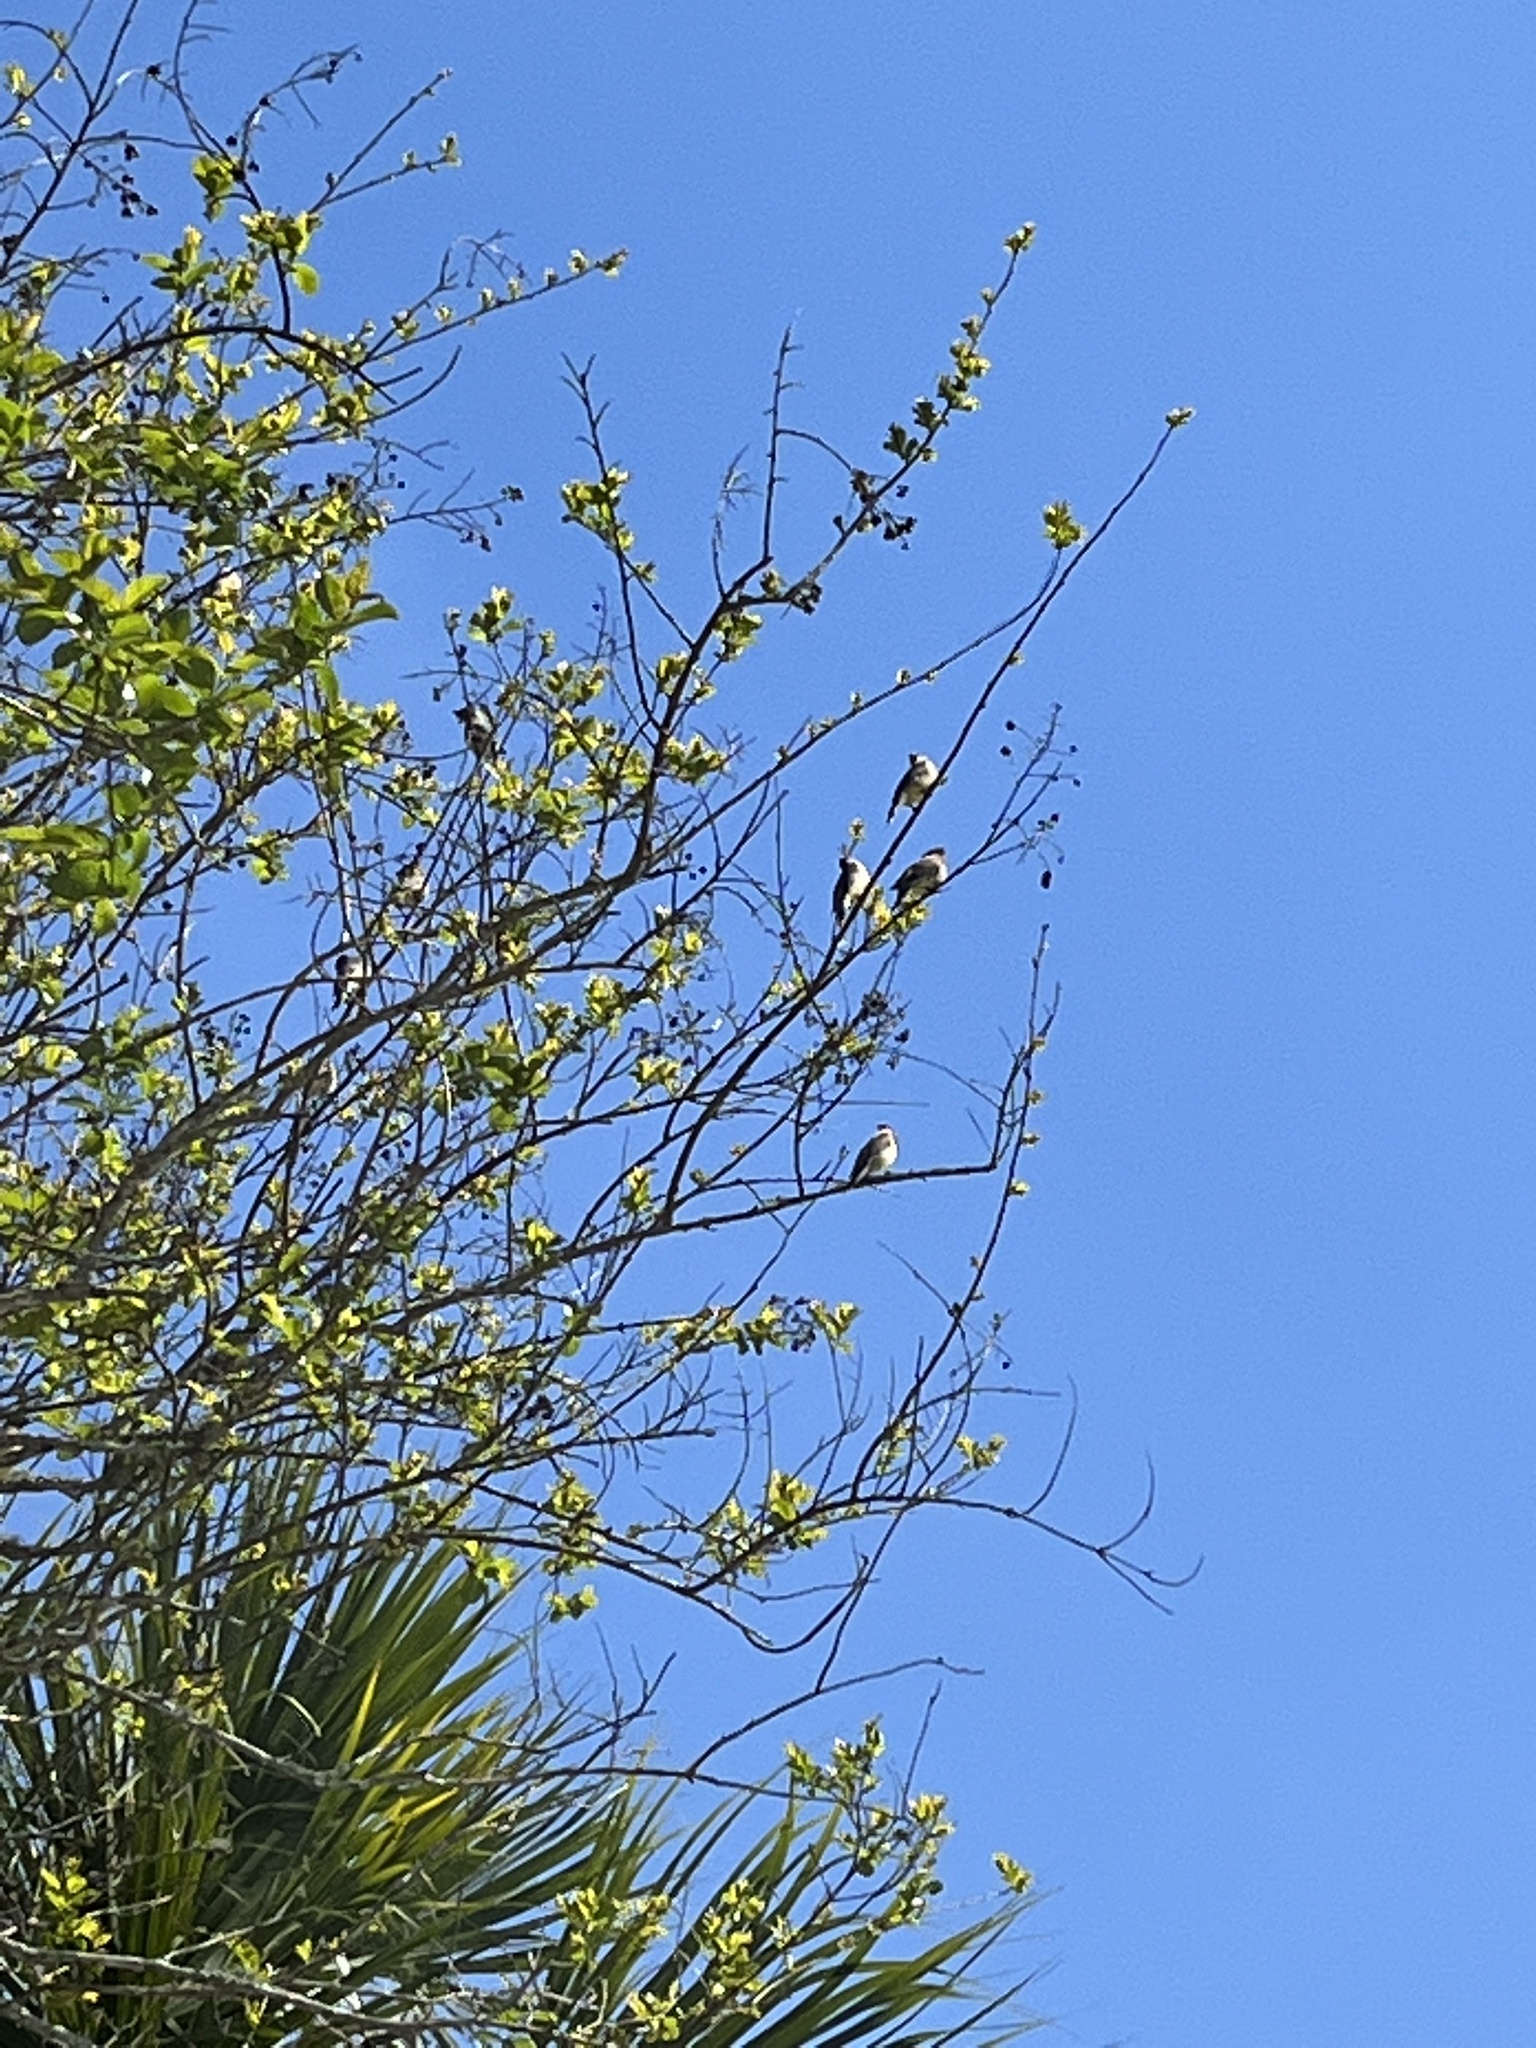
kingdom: Animalia
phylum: Chordata
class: Aves
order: Passeriformes
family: Bombycillidae
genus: Bombycilla
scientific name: Bombycilla cedrorum
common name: Cedar waxwing
